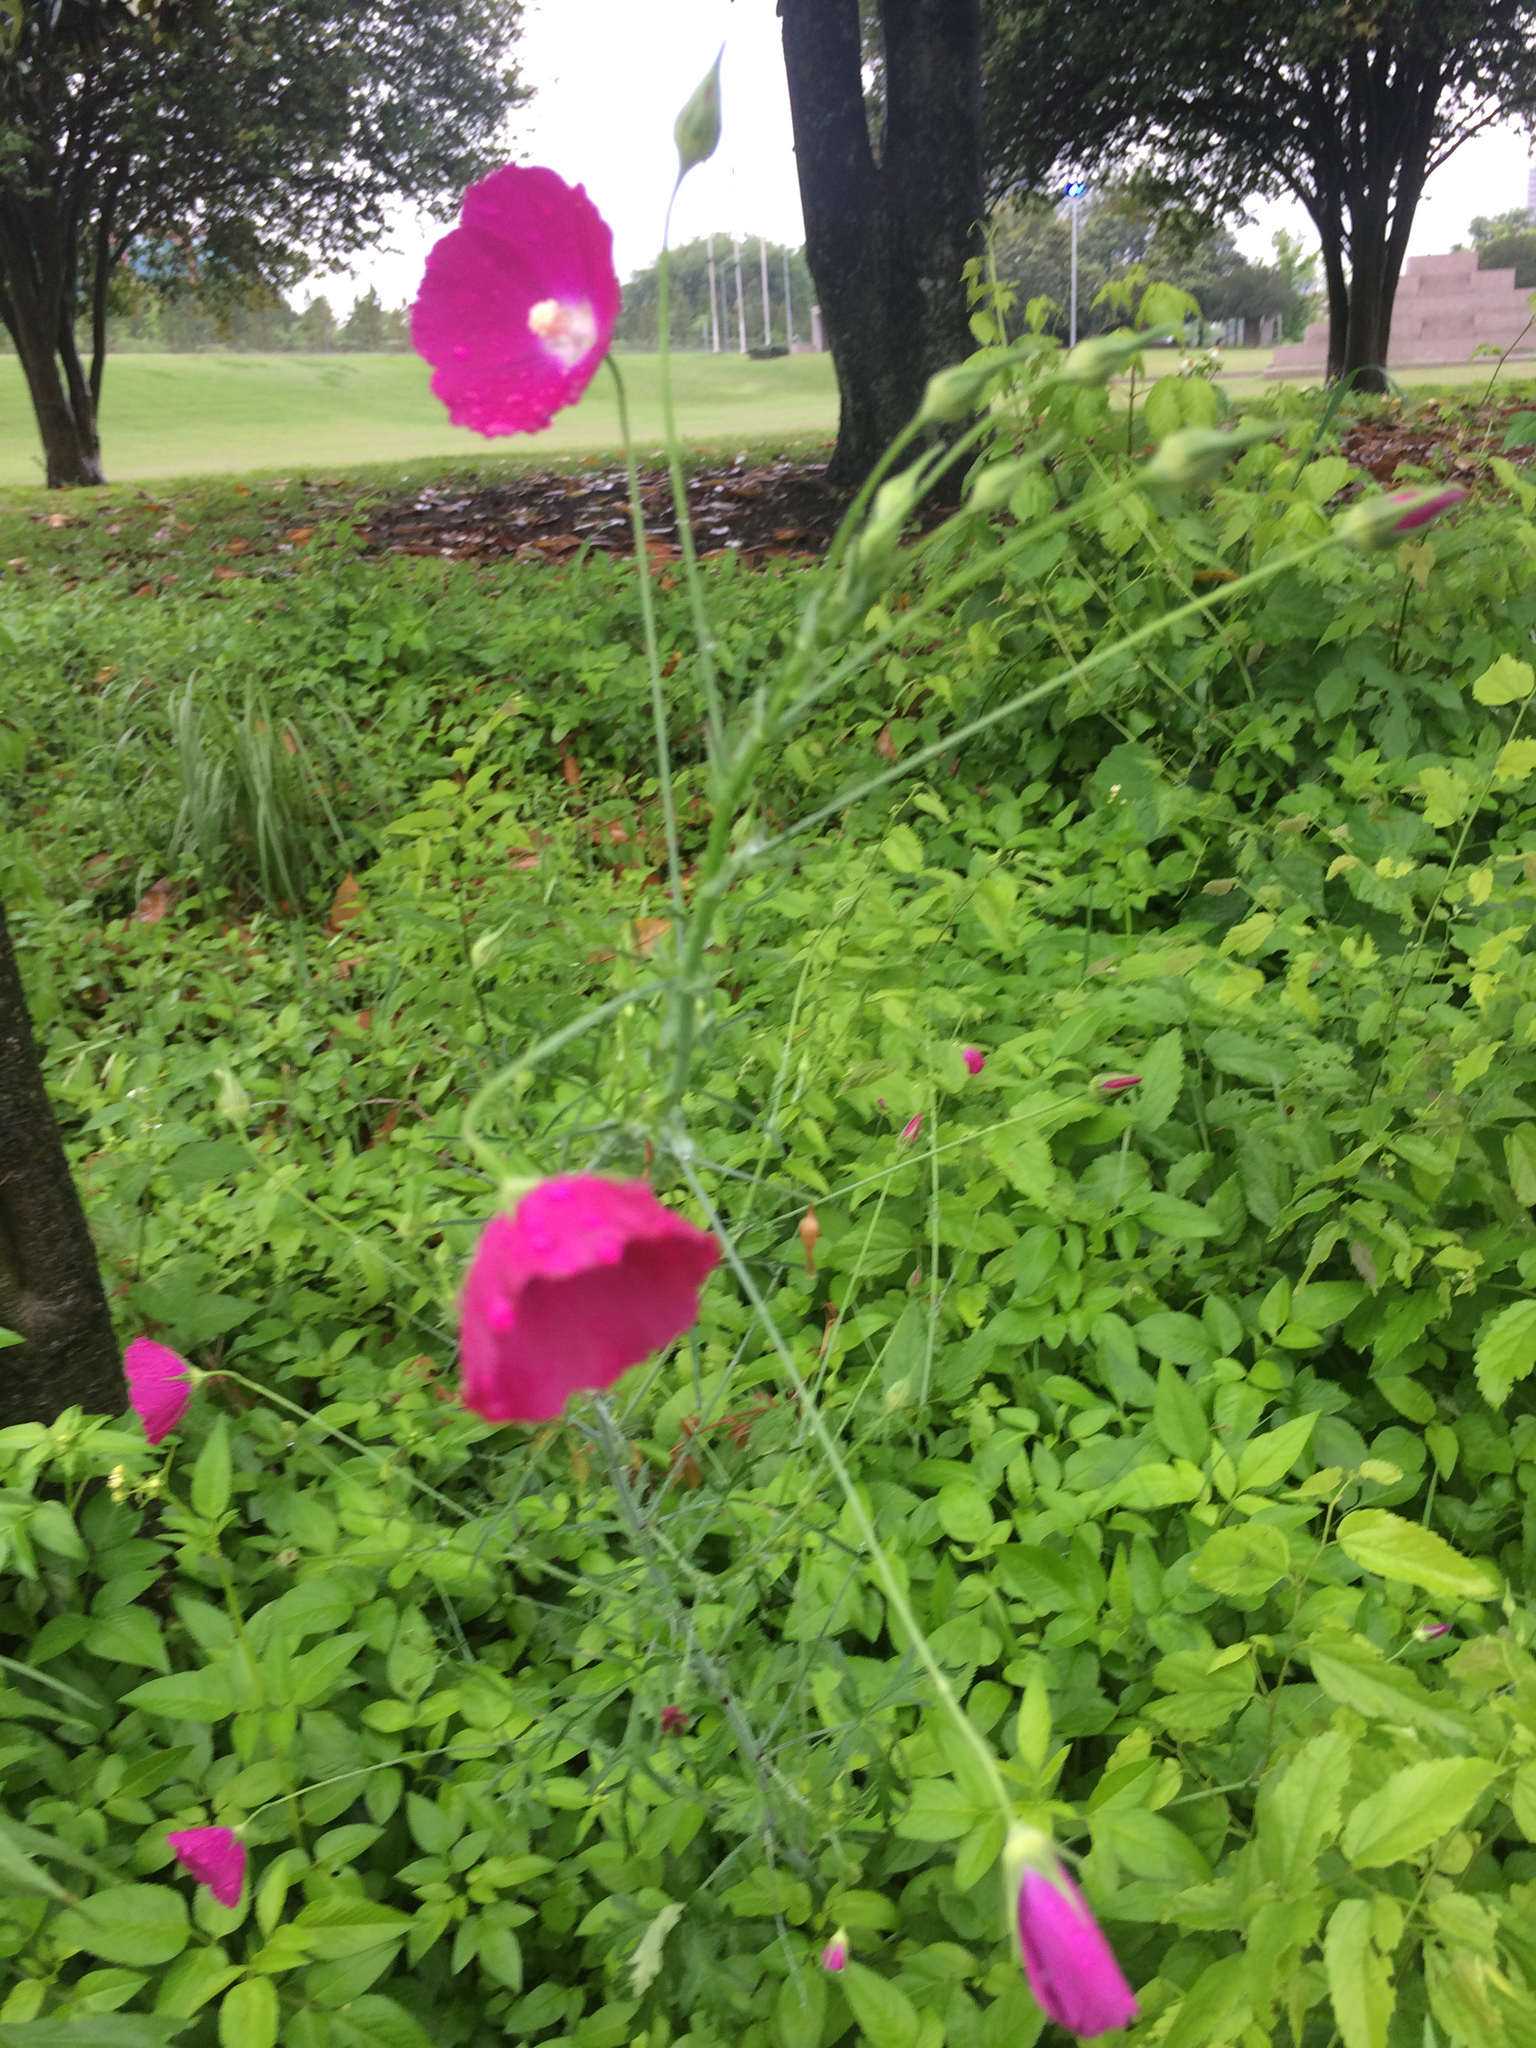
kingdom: Plantae
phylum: Tracheophyta
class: Magnoliopsida
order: Malvales
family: Malvaceae
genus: Callirhoe
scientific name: Callirhoe leiocarpa
